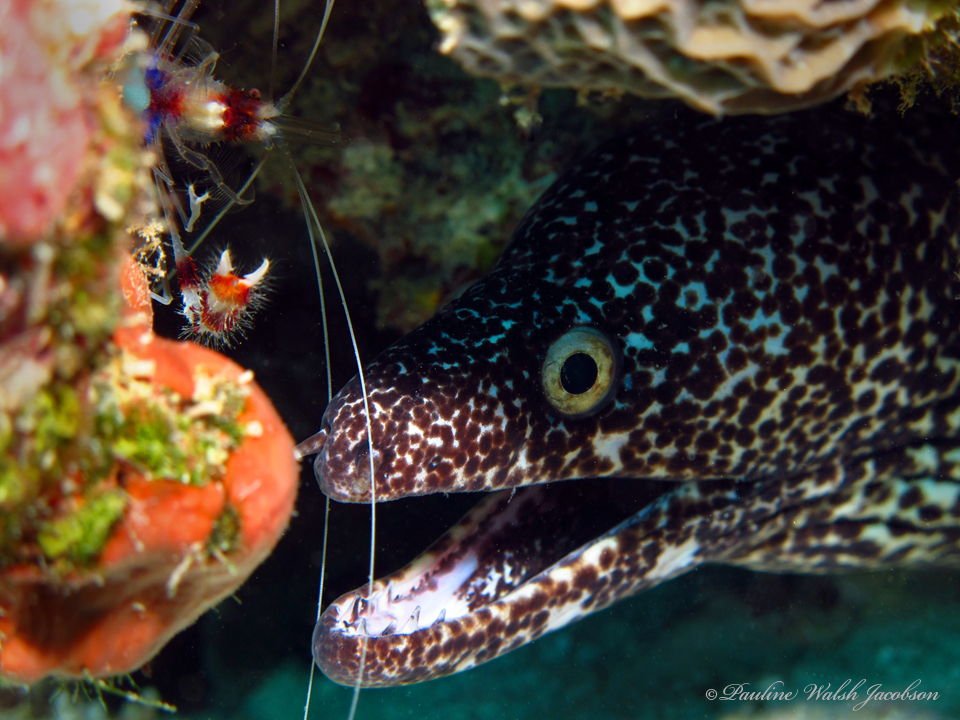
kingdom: Animalia
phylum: Arthropoda
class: Malacostraca
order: Decapoda
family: Stenopodidae
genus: Stenopus
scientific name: Stenopus hispidus
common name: Banded coral shrimp
